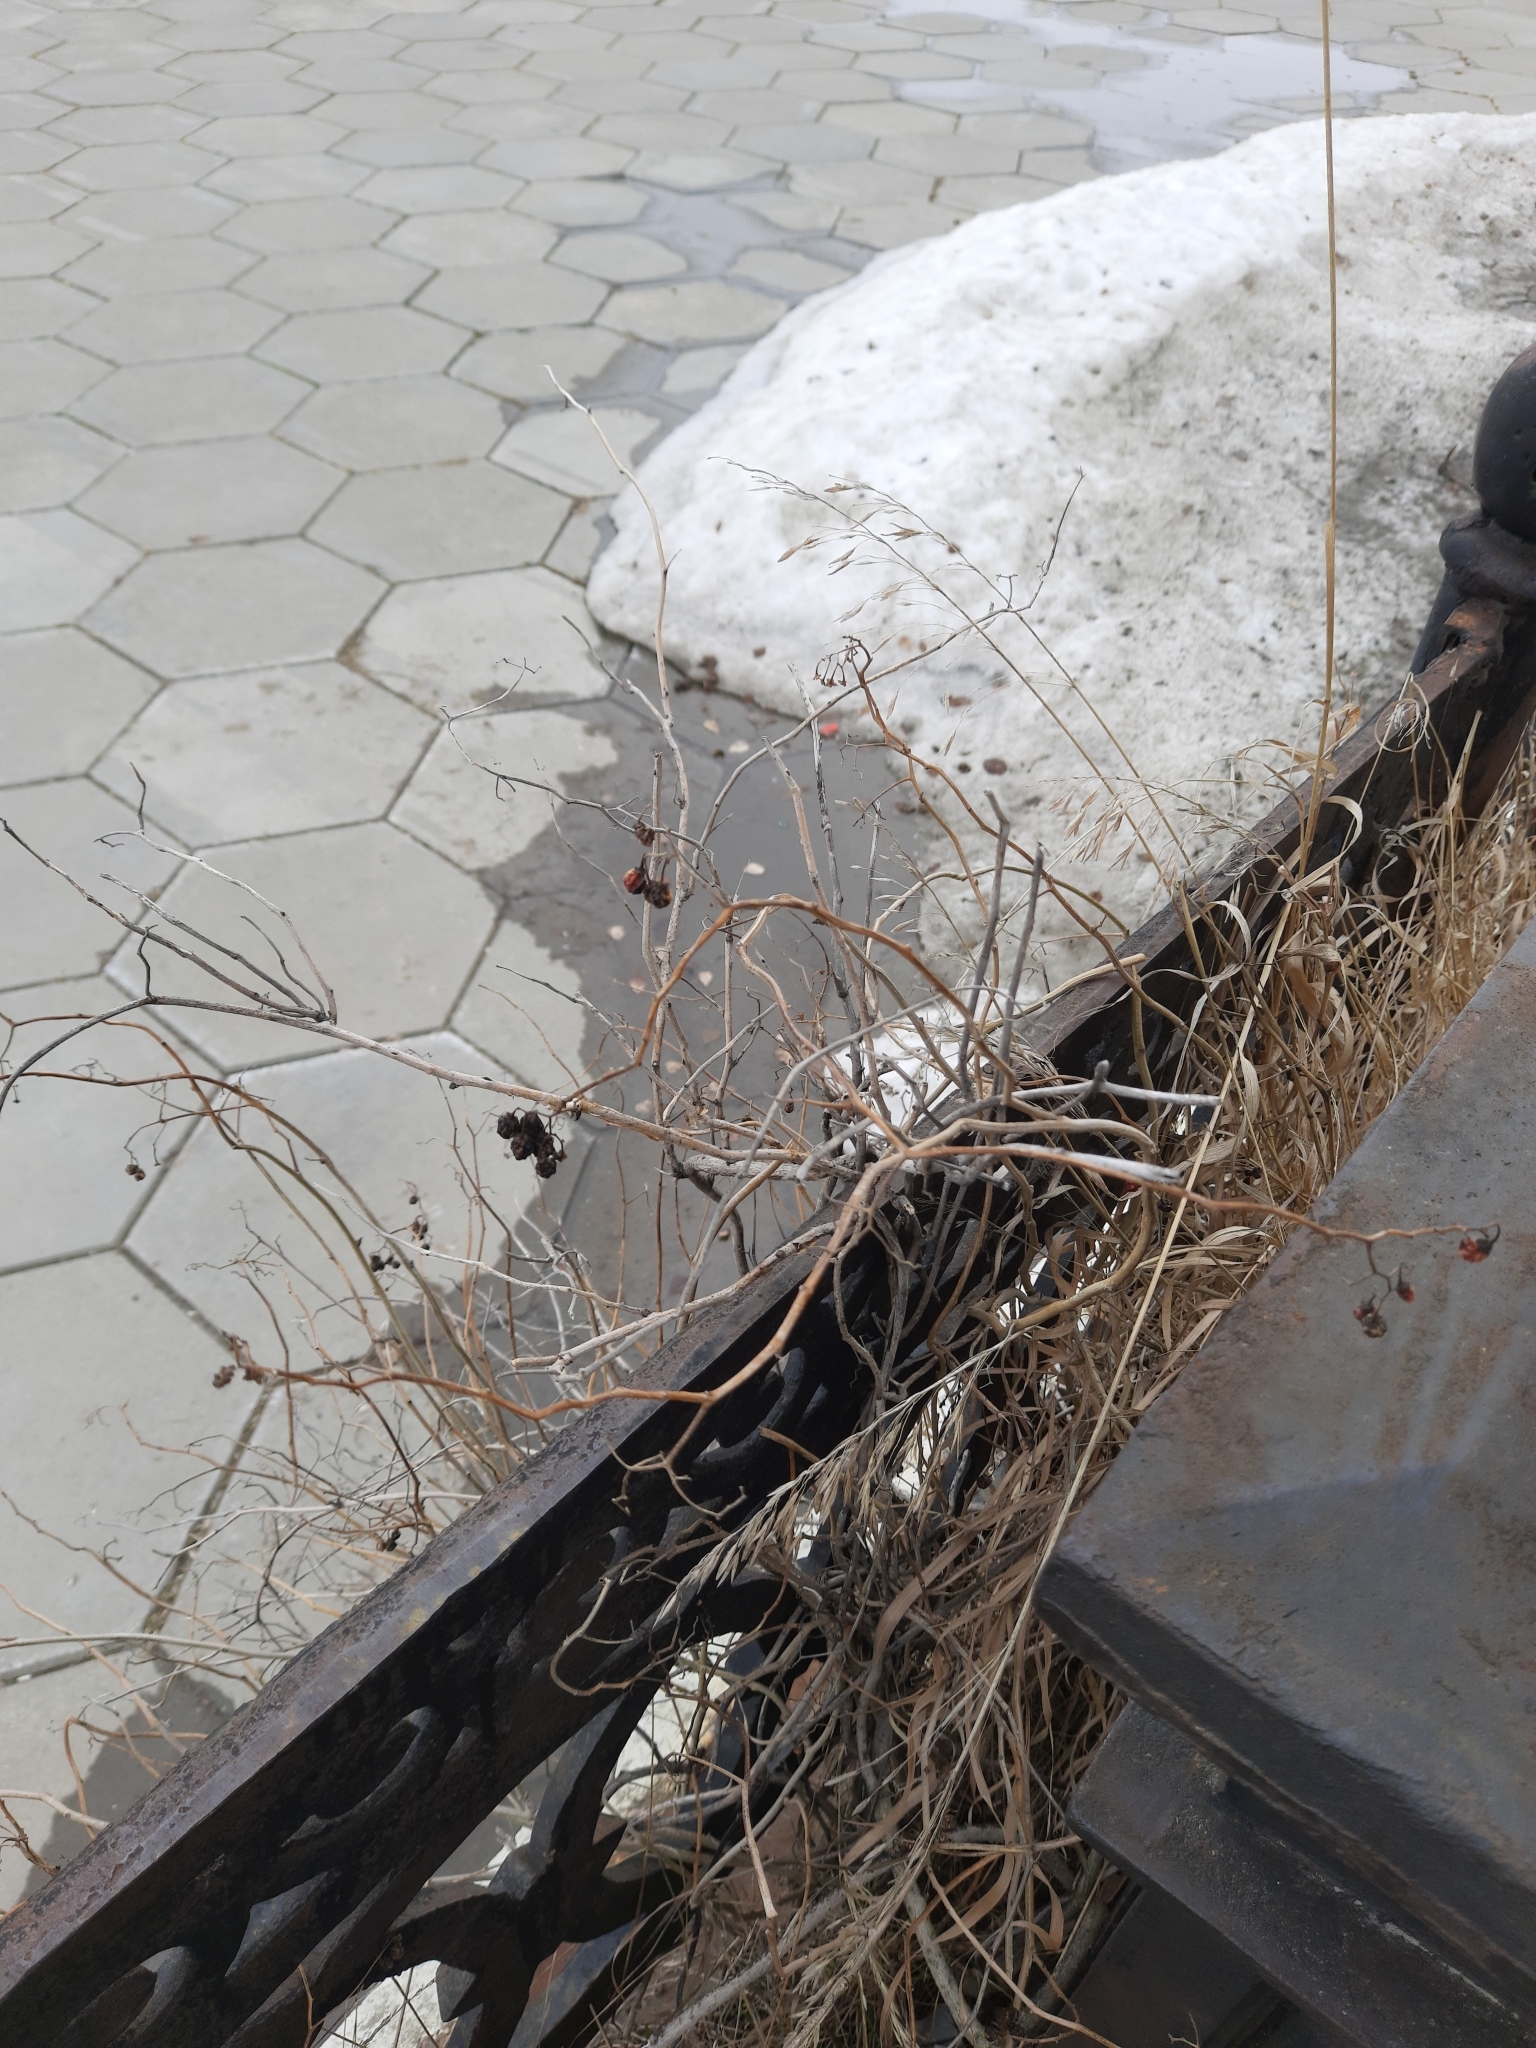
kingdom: Plantae
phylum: Tracheophyta
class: Magnoliopsida
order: Solanales
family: Solanaceae
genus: Solanum
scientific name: Solanum dulcamara
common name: Climbing nightshade
